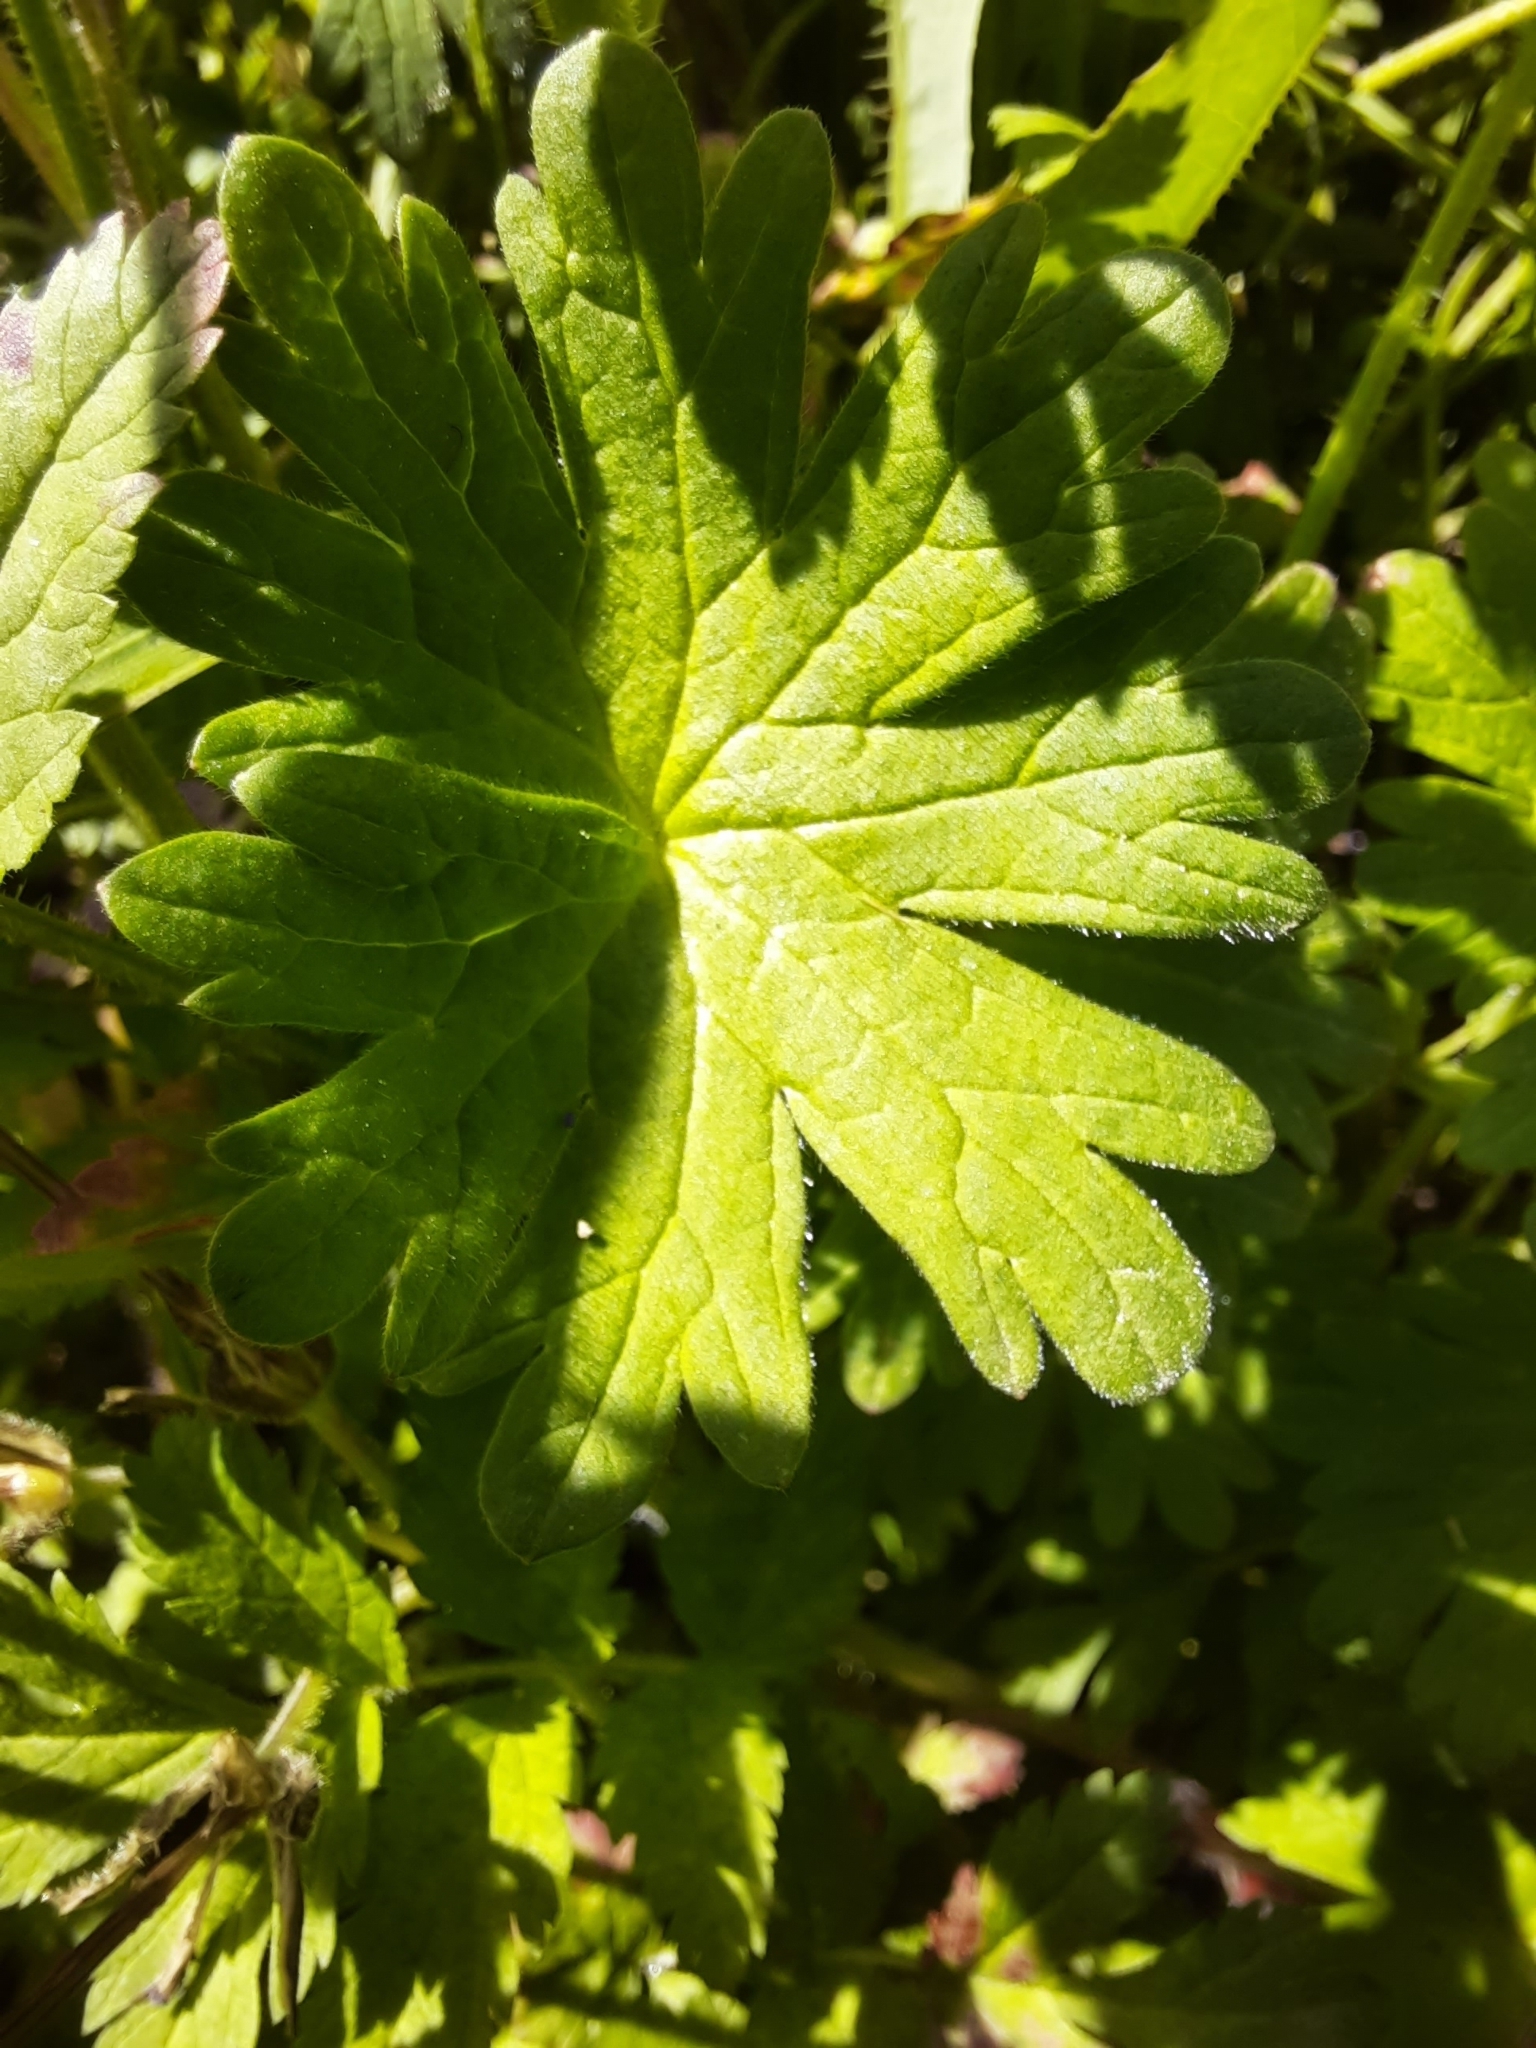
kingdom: Plantae
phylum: Tracheophyta
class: Magnoliopsida
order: Geraniales
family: Geraniaceae
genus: Geranium
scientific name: Geranium molle
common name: Dove's-foot crane's-bill
